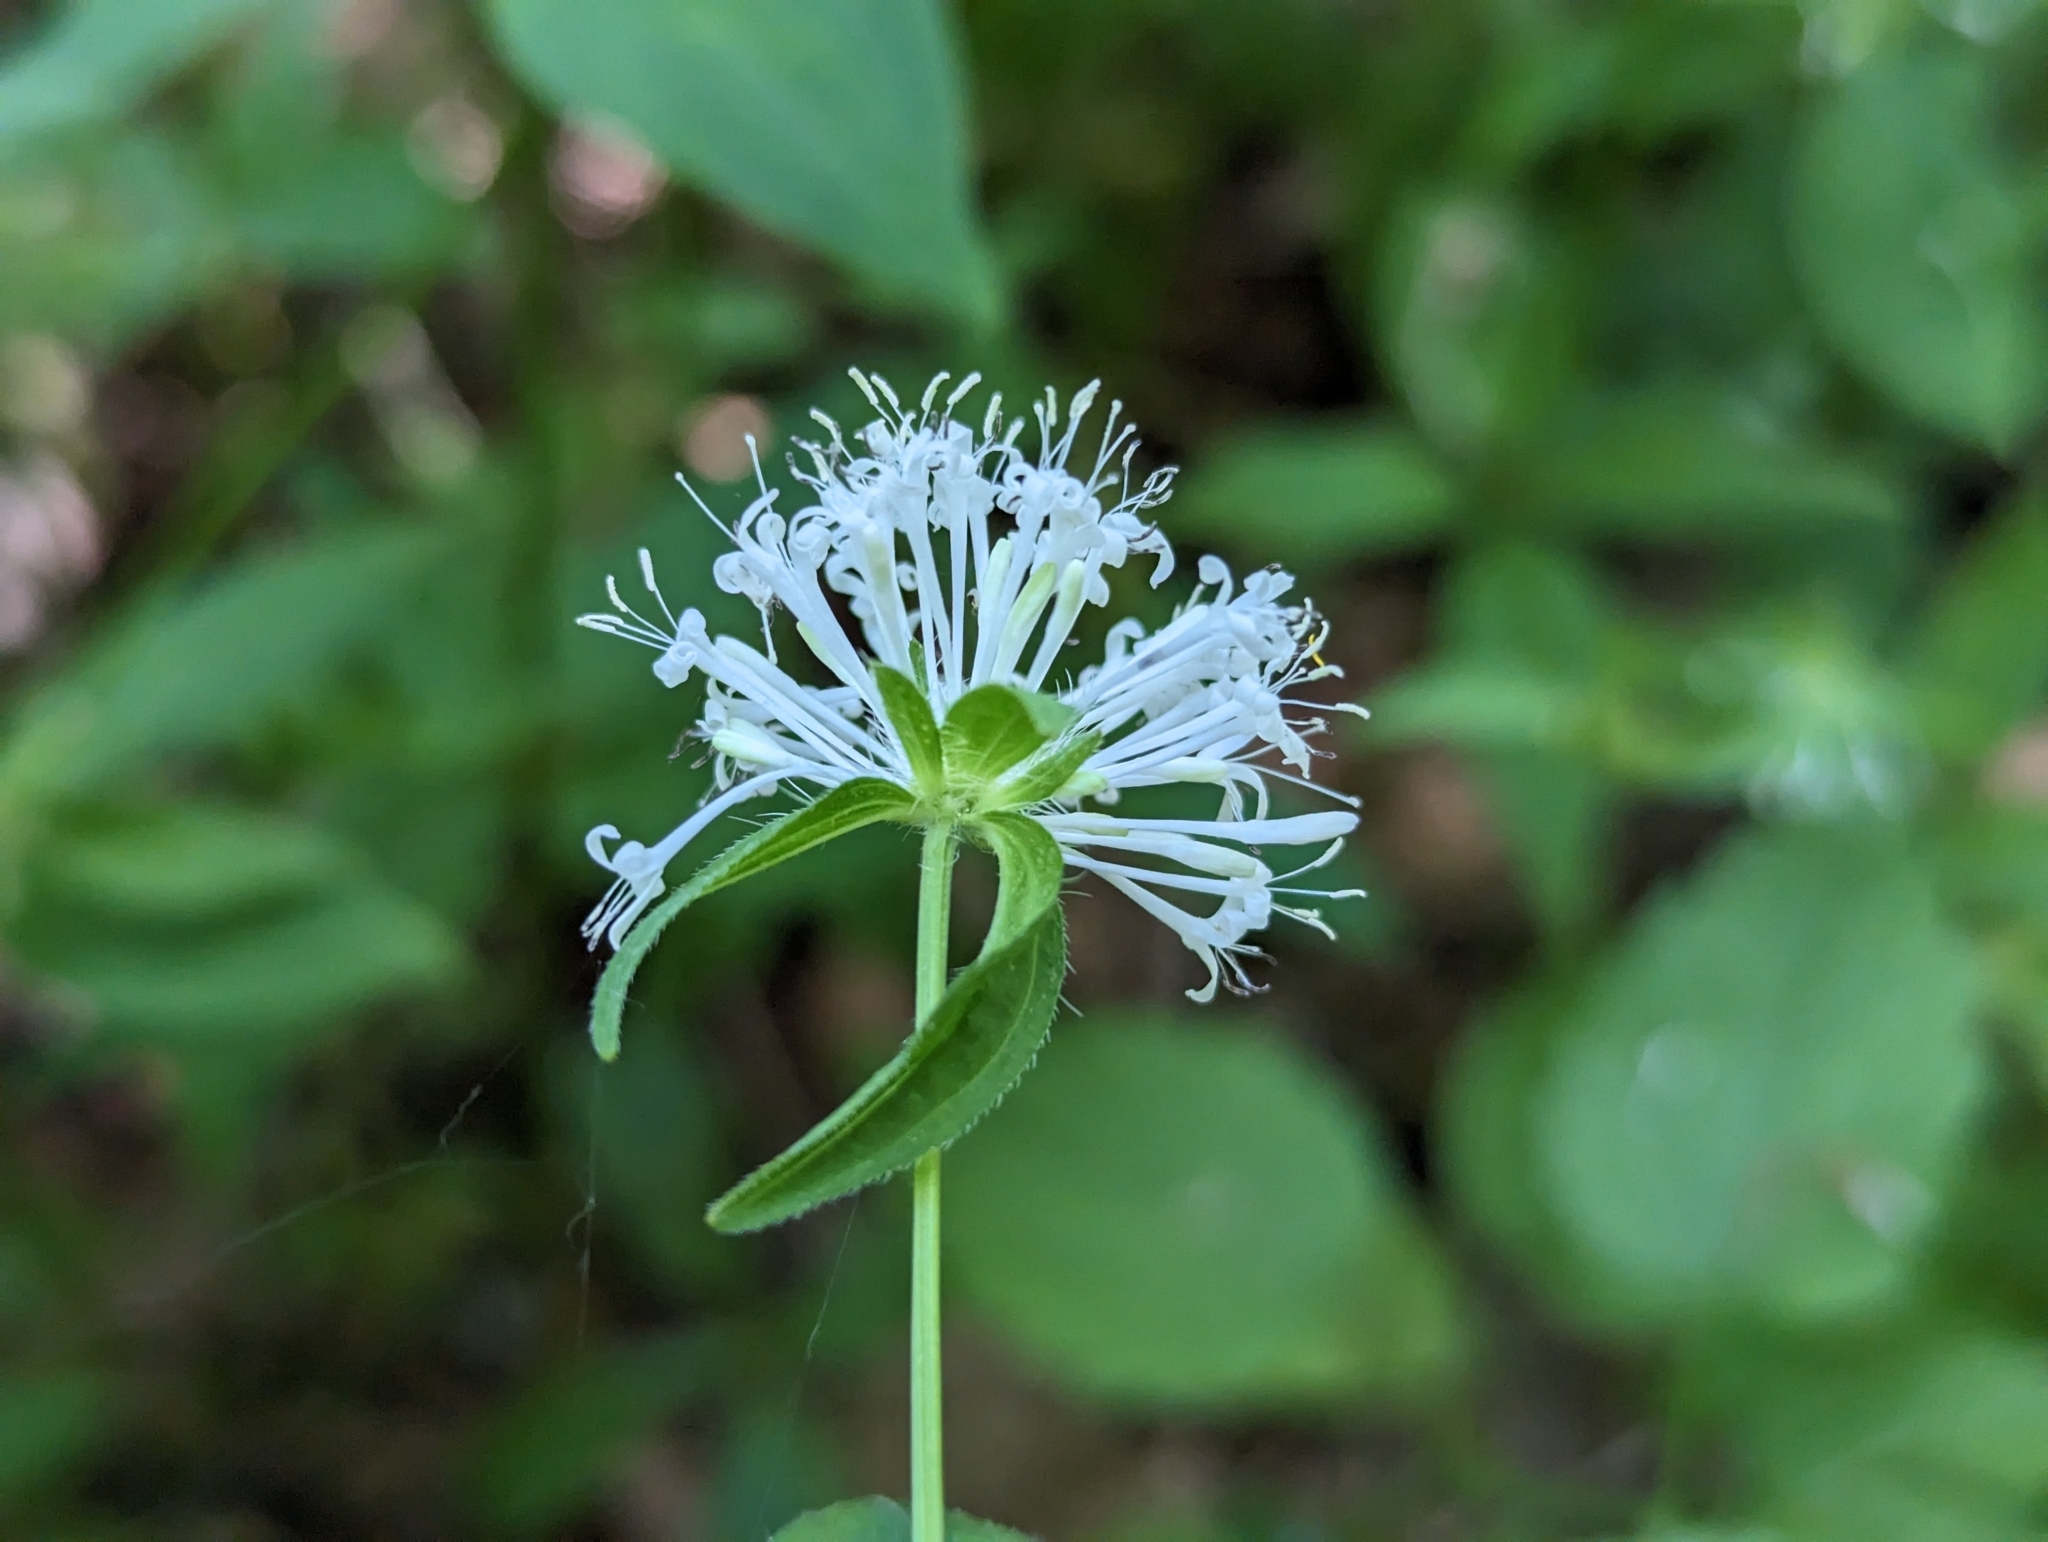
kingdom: Plantae
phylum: Tracheophyta
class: Magnoliopsida
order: Gentianales
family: Rubiaceae
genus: Asperula
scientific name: Asperula taurina
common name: Pink woodruff
